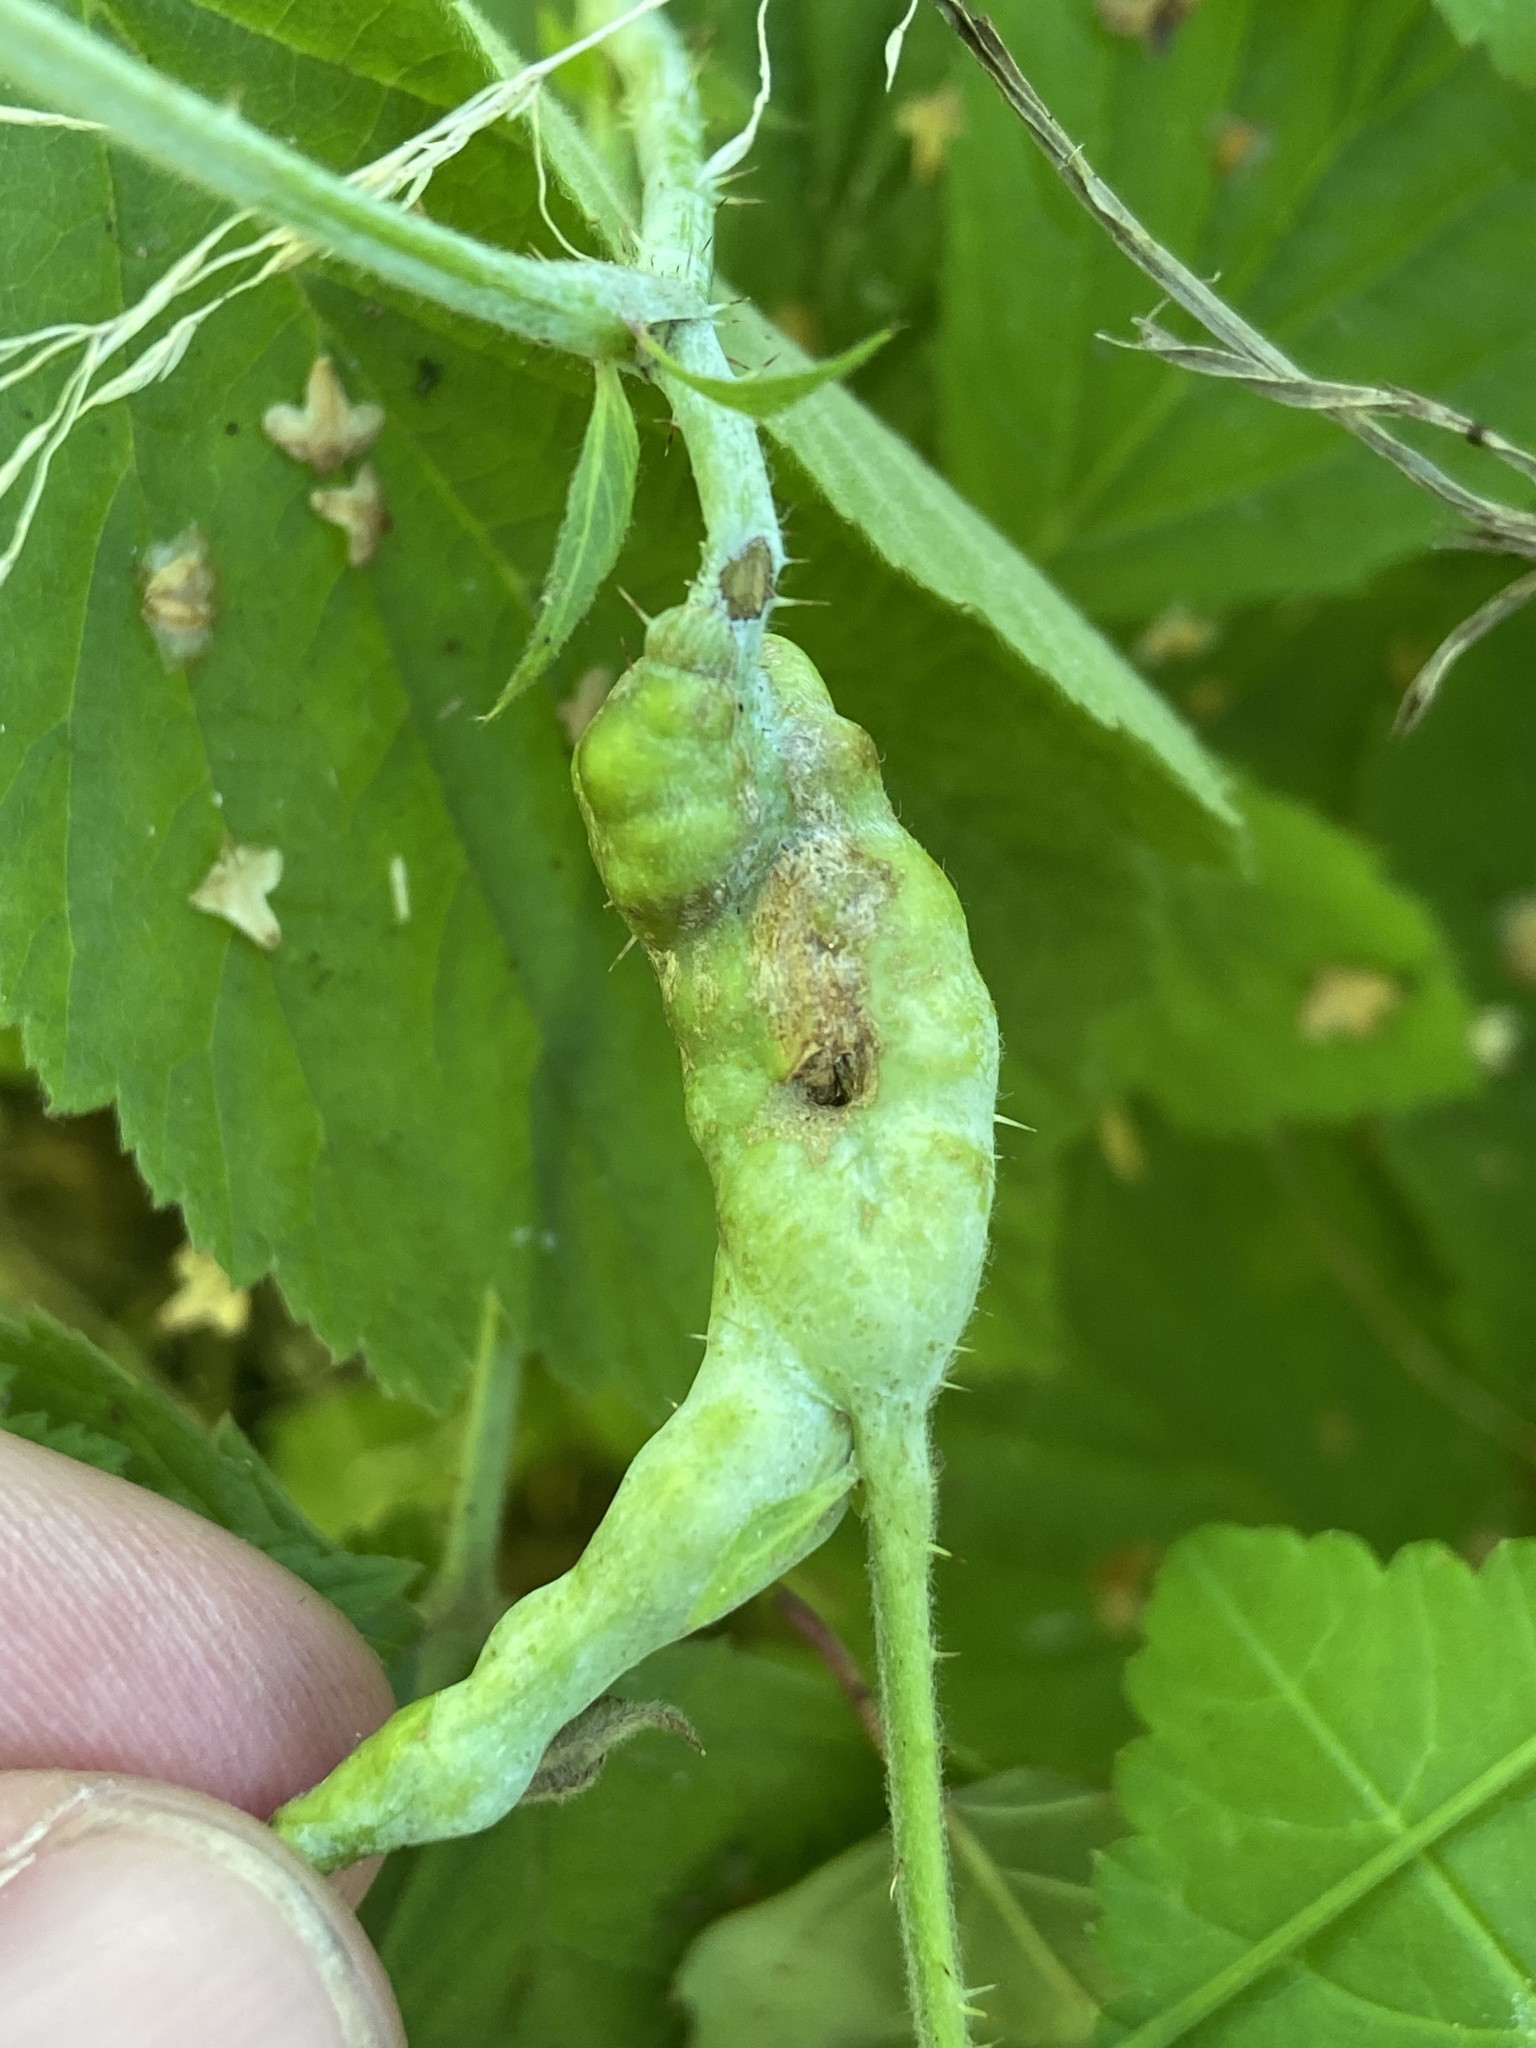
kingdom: Animalia
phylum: Arthropoda
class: Insecta
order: Hymenoptera
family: Cynipidae
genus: Diastrophus
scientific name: Diastrophus rubi
